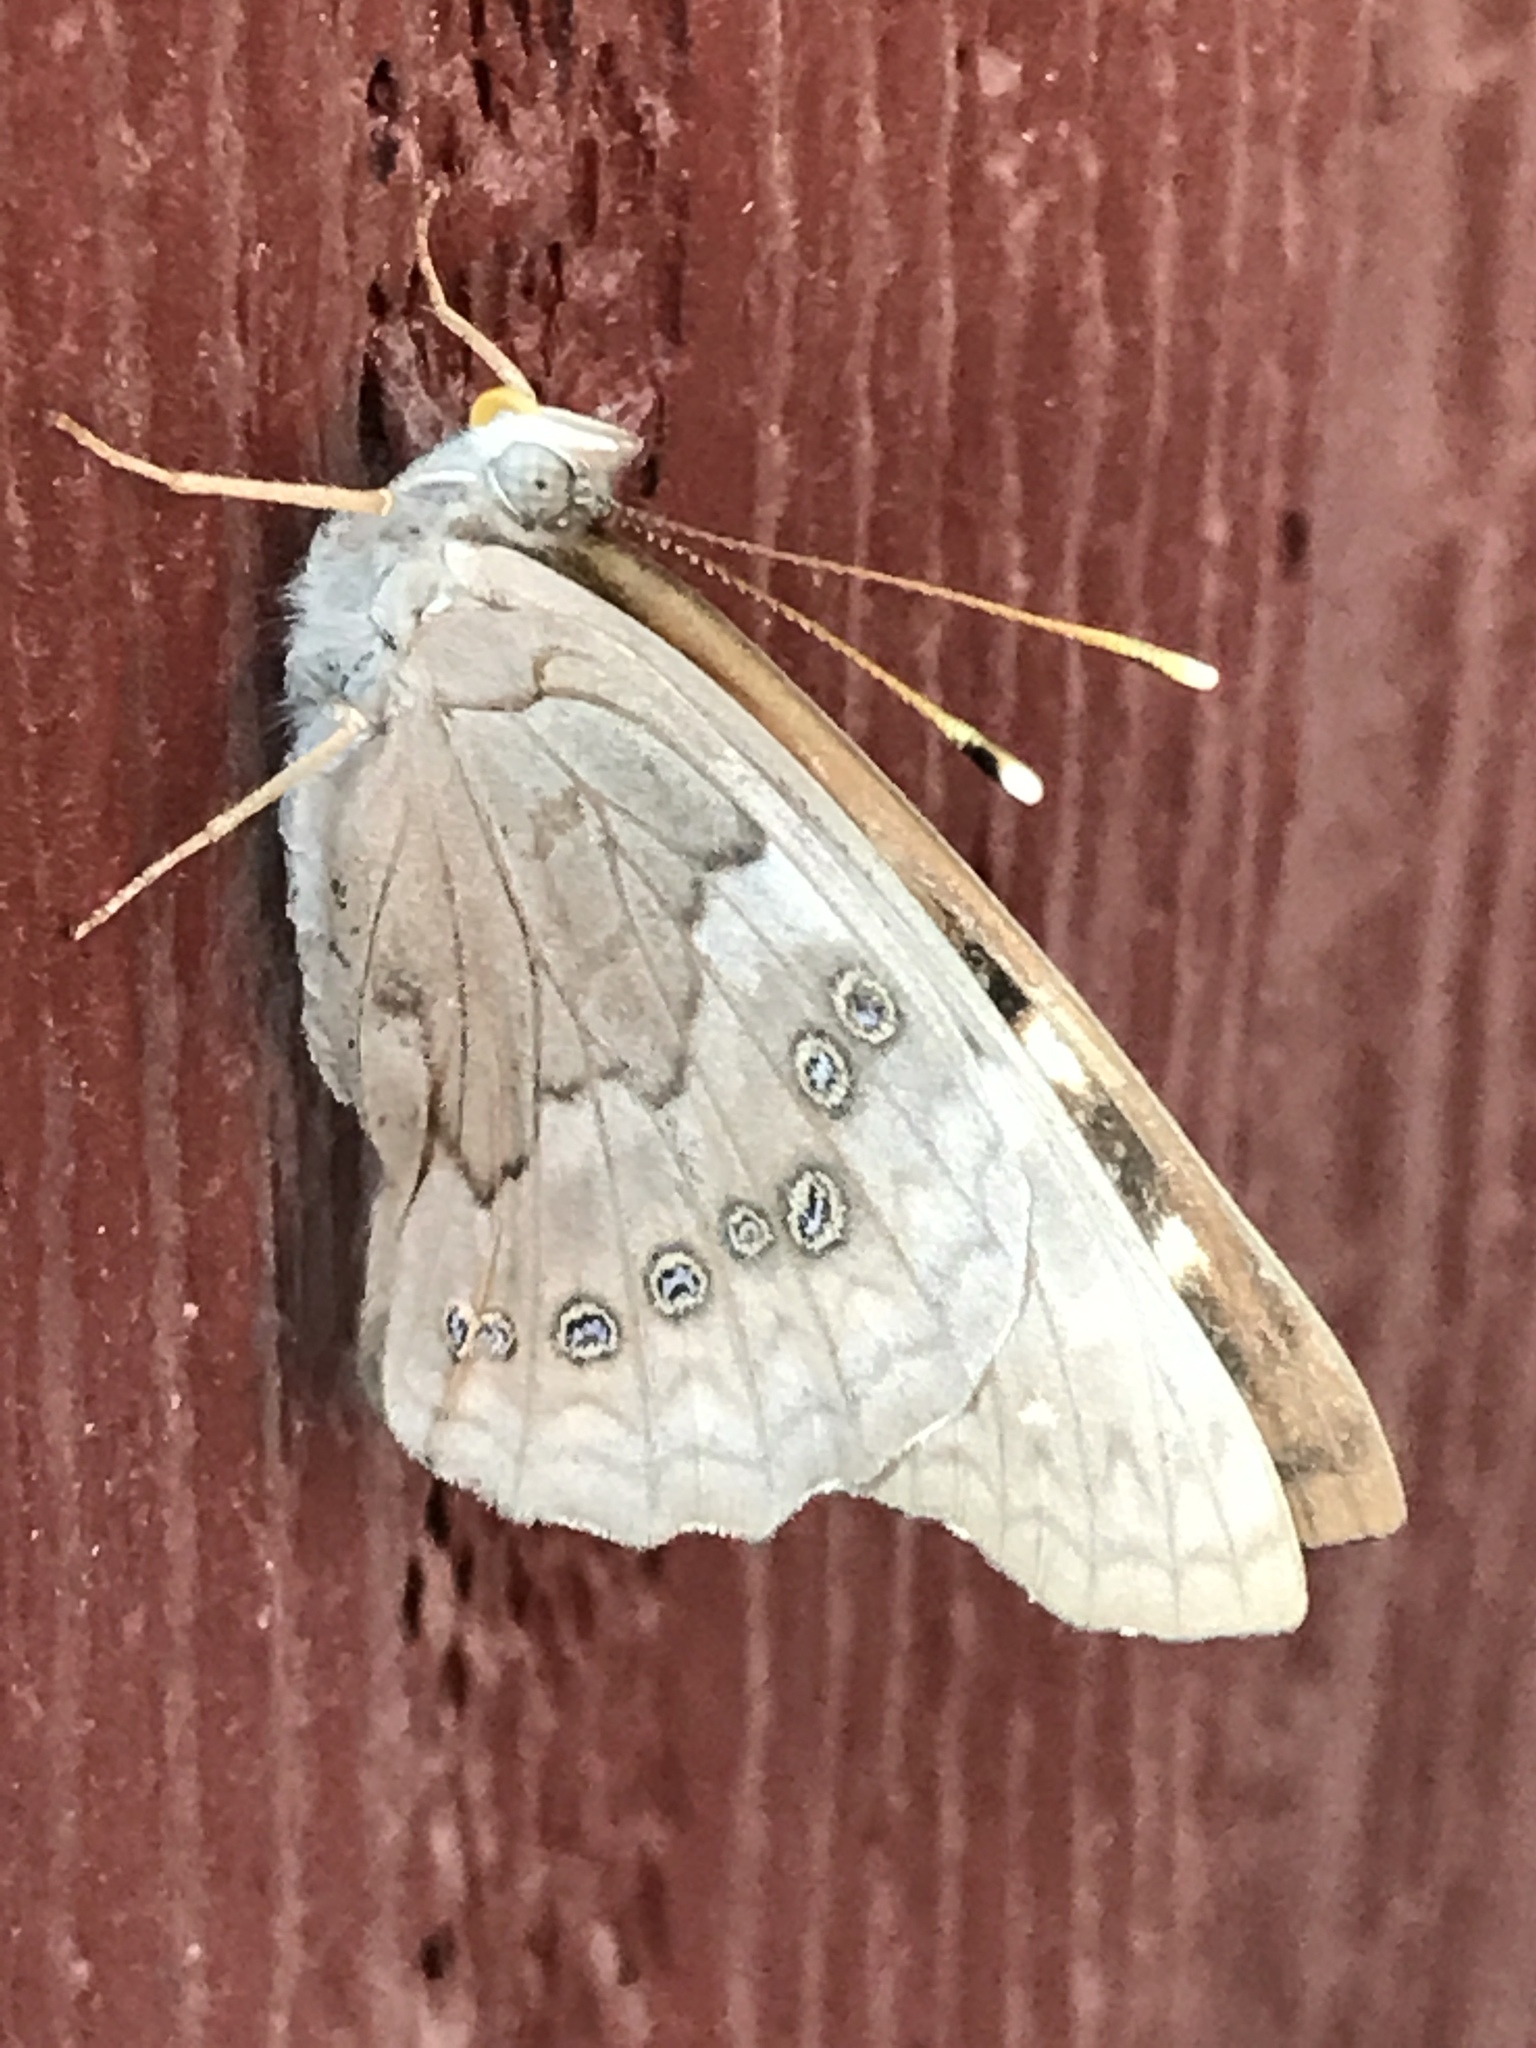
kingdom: Animalia
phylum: Arthropoda
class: Insecta
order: Lepidoptera
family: Nymphalidae
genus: Asterocampa
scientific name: Asterocampa clyton
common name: Tawny emperor
